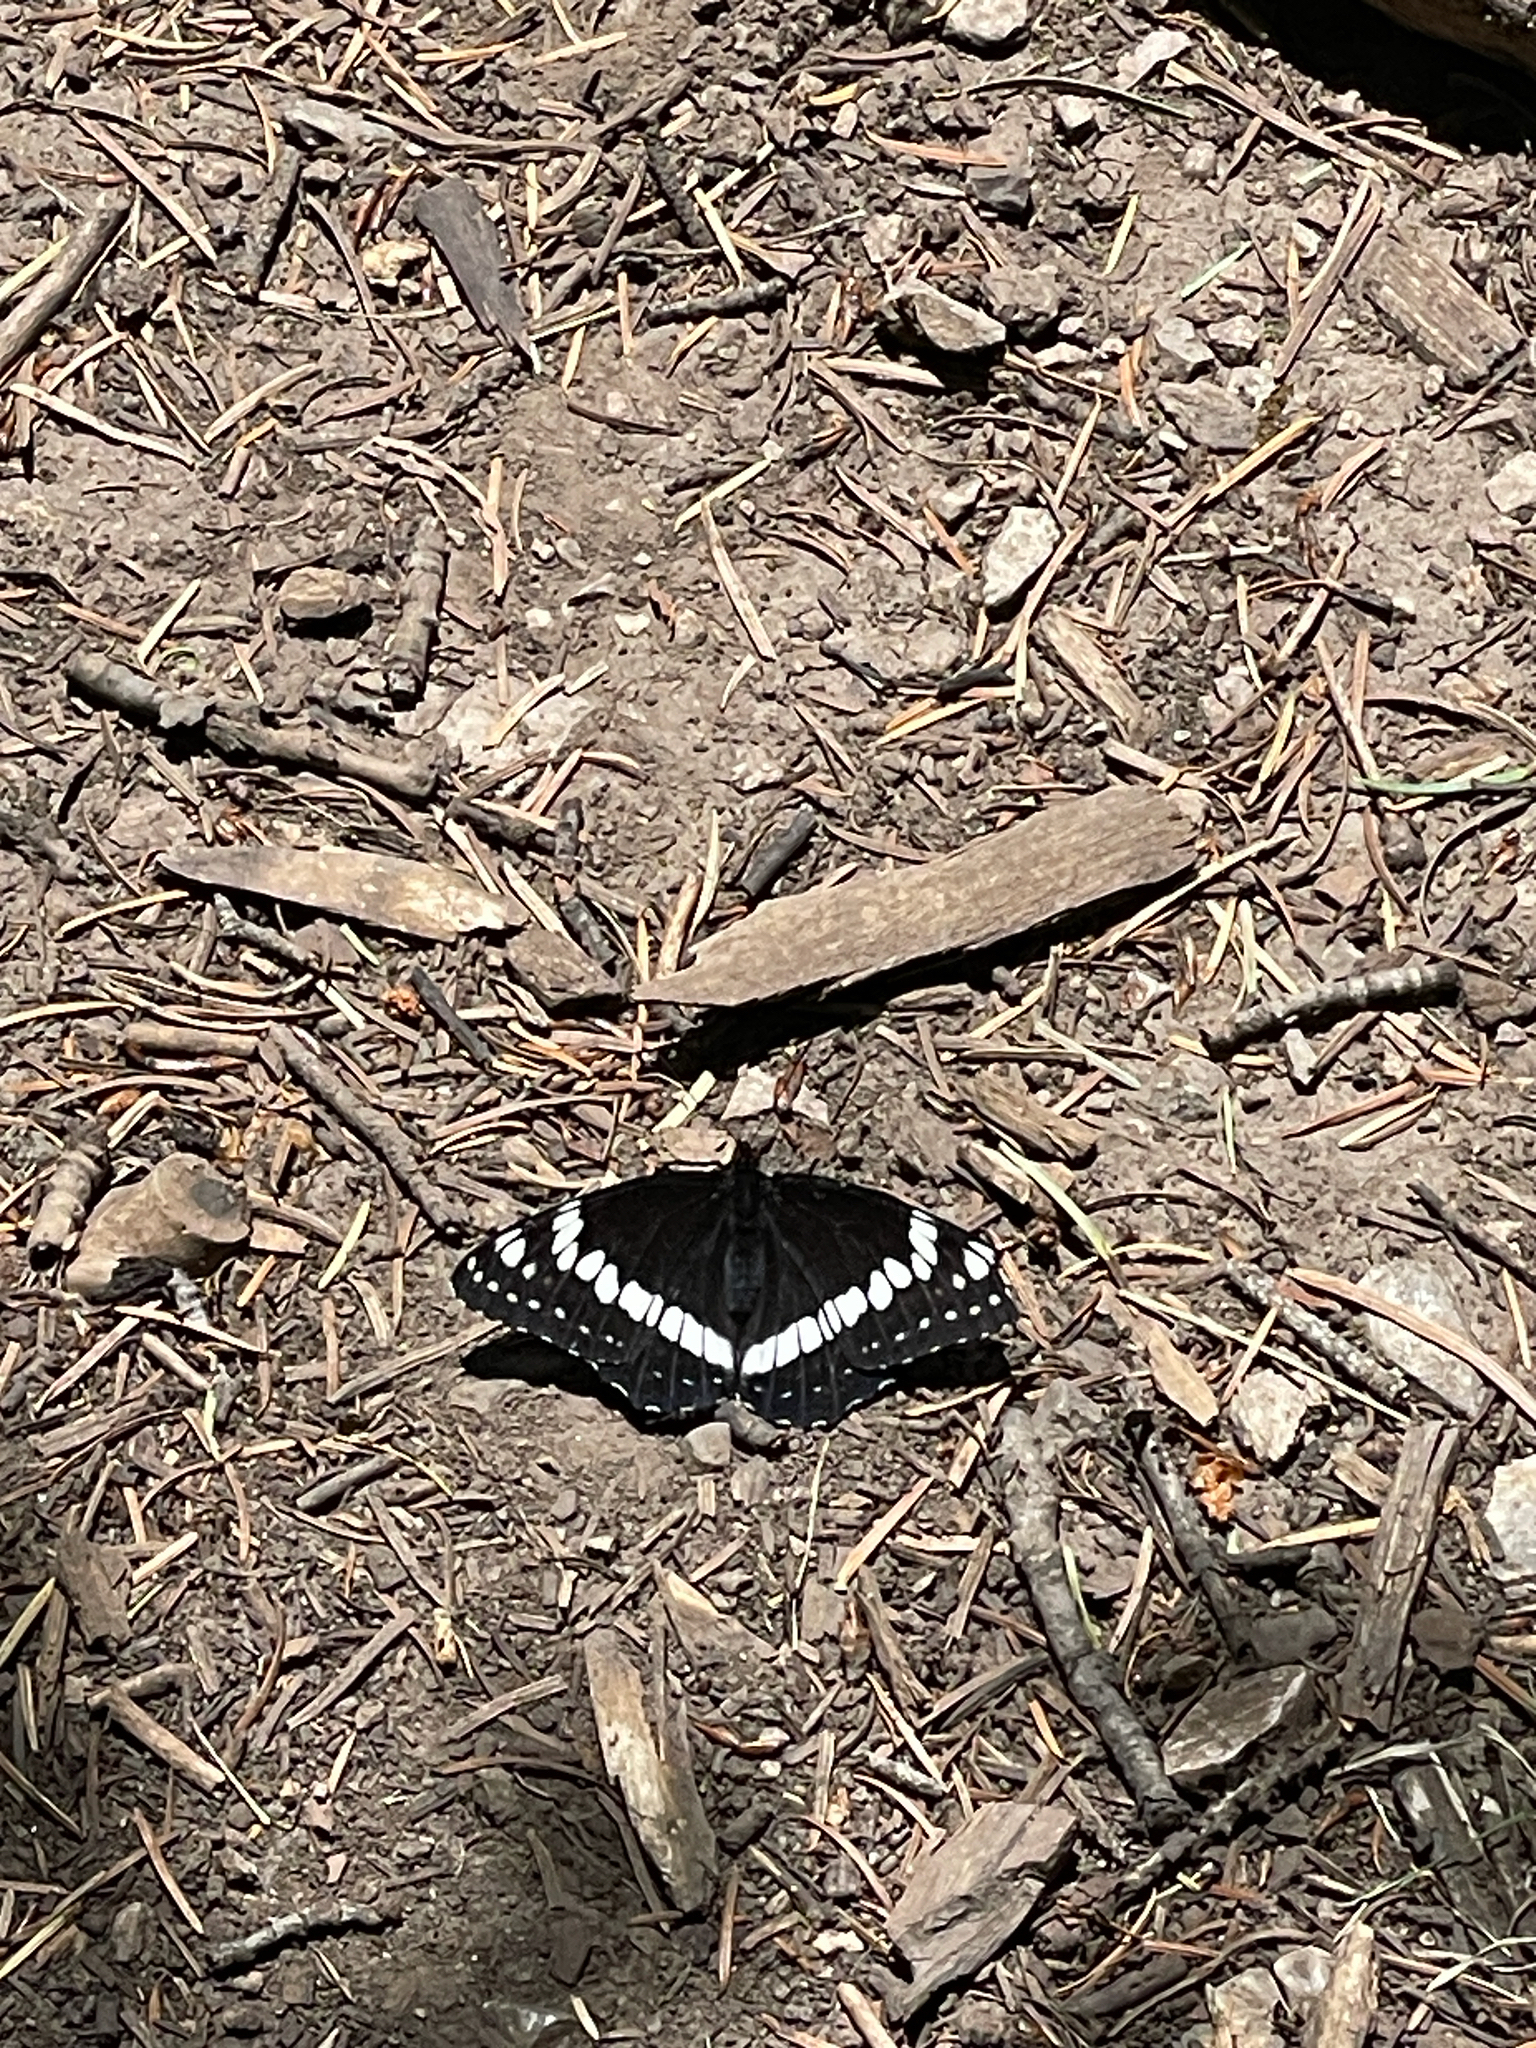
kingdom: Animalia
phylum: Arthropoda
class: Insecta
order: Lepidoptera
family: Nymphalidae
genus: Limenitis
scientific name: Limenitis weidemeyerii
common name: Weidemeyer's admiral
